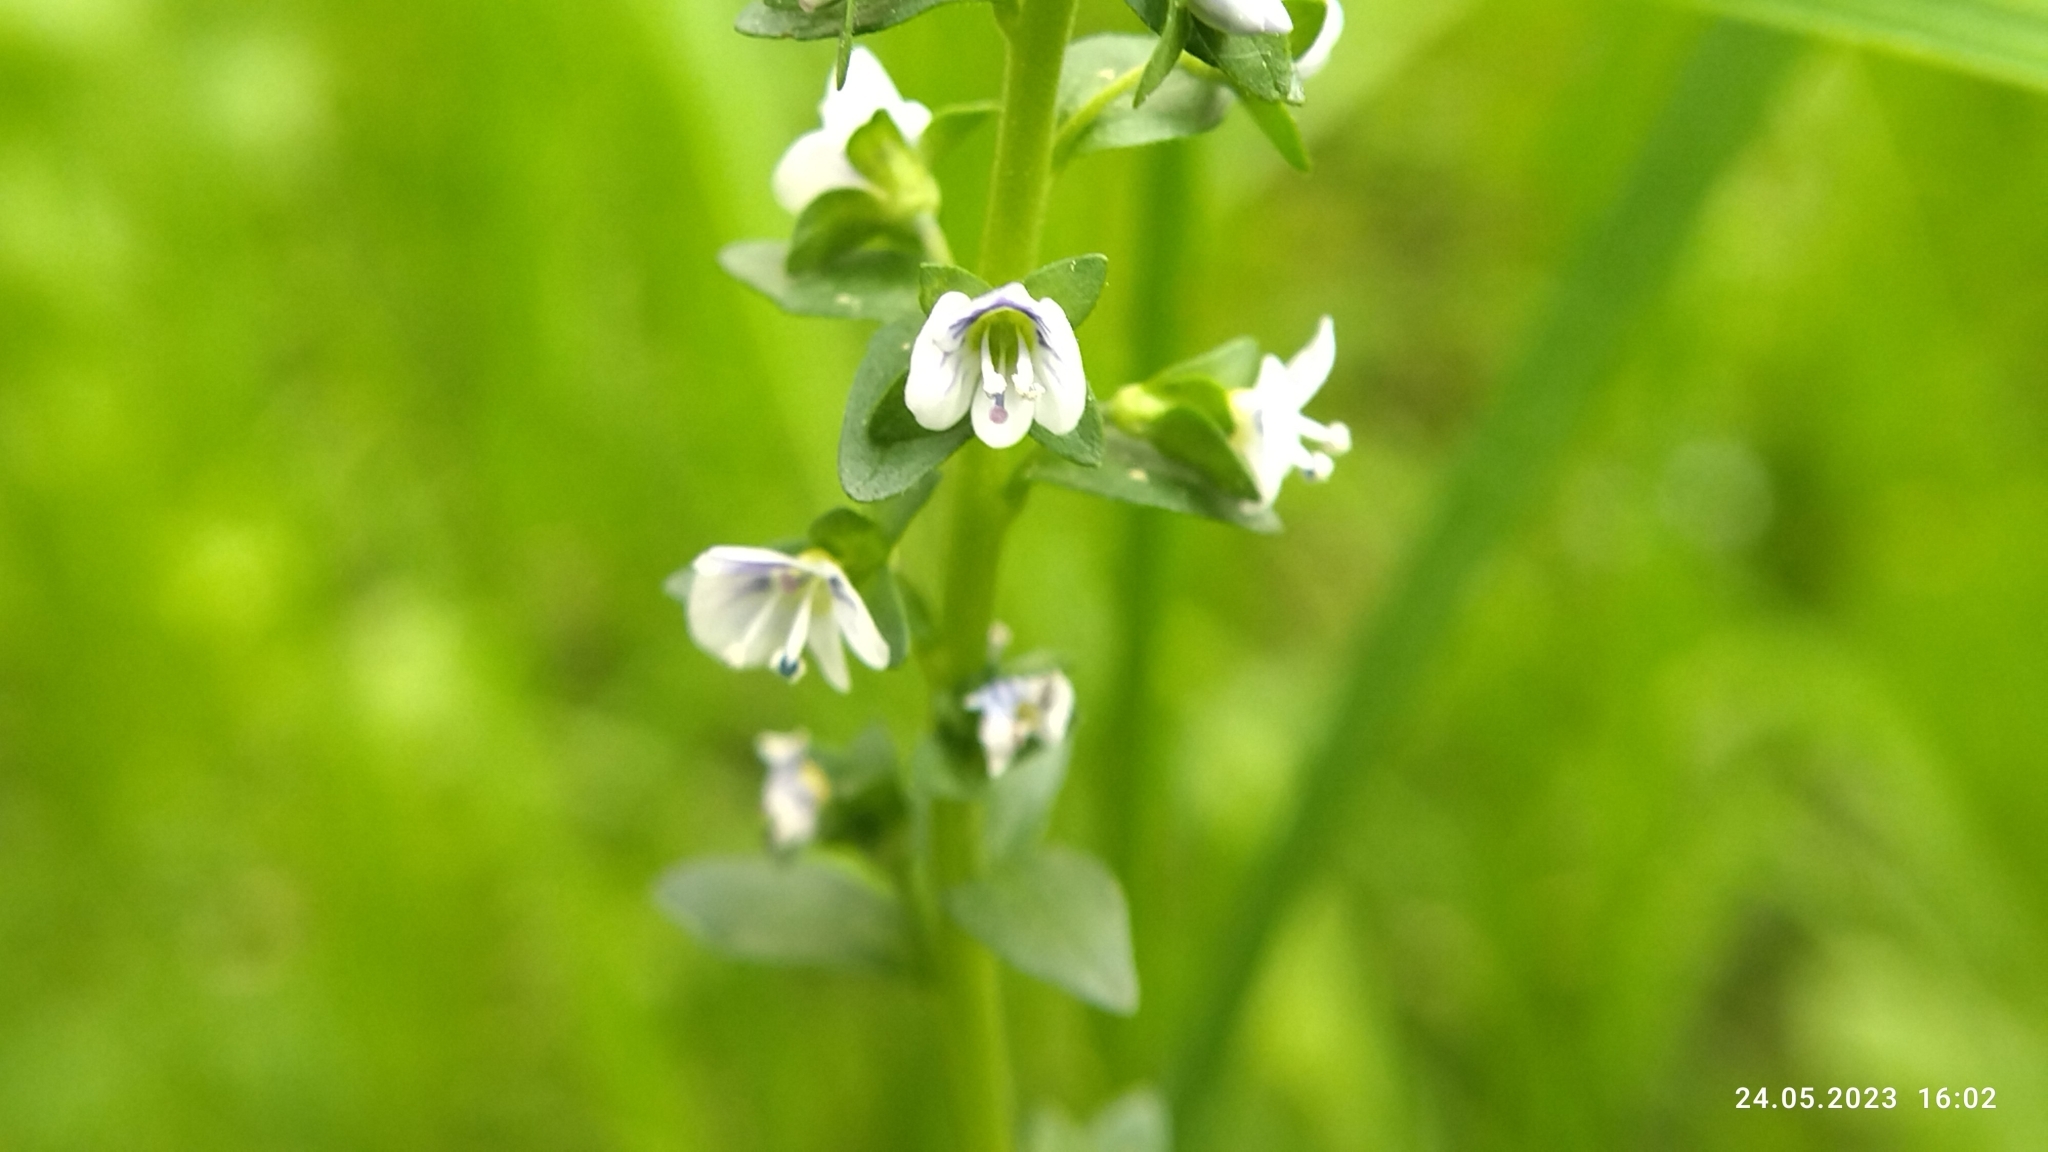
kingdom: Plantae
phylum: Tracheophyta
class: Magnoliopsida
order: Lamiales
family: Plantaginaceae
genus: Veronica
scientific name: Veronica serpyllifolia
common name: Thyme-leaved speedwell
